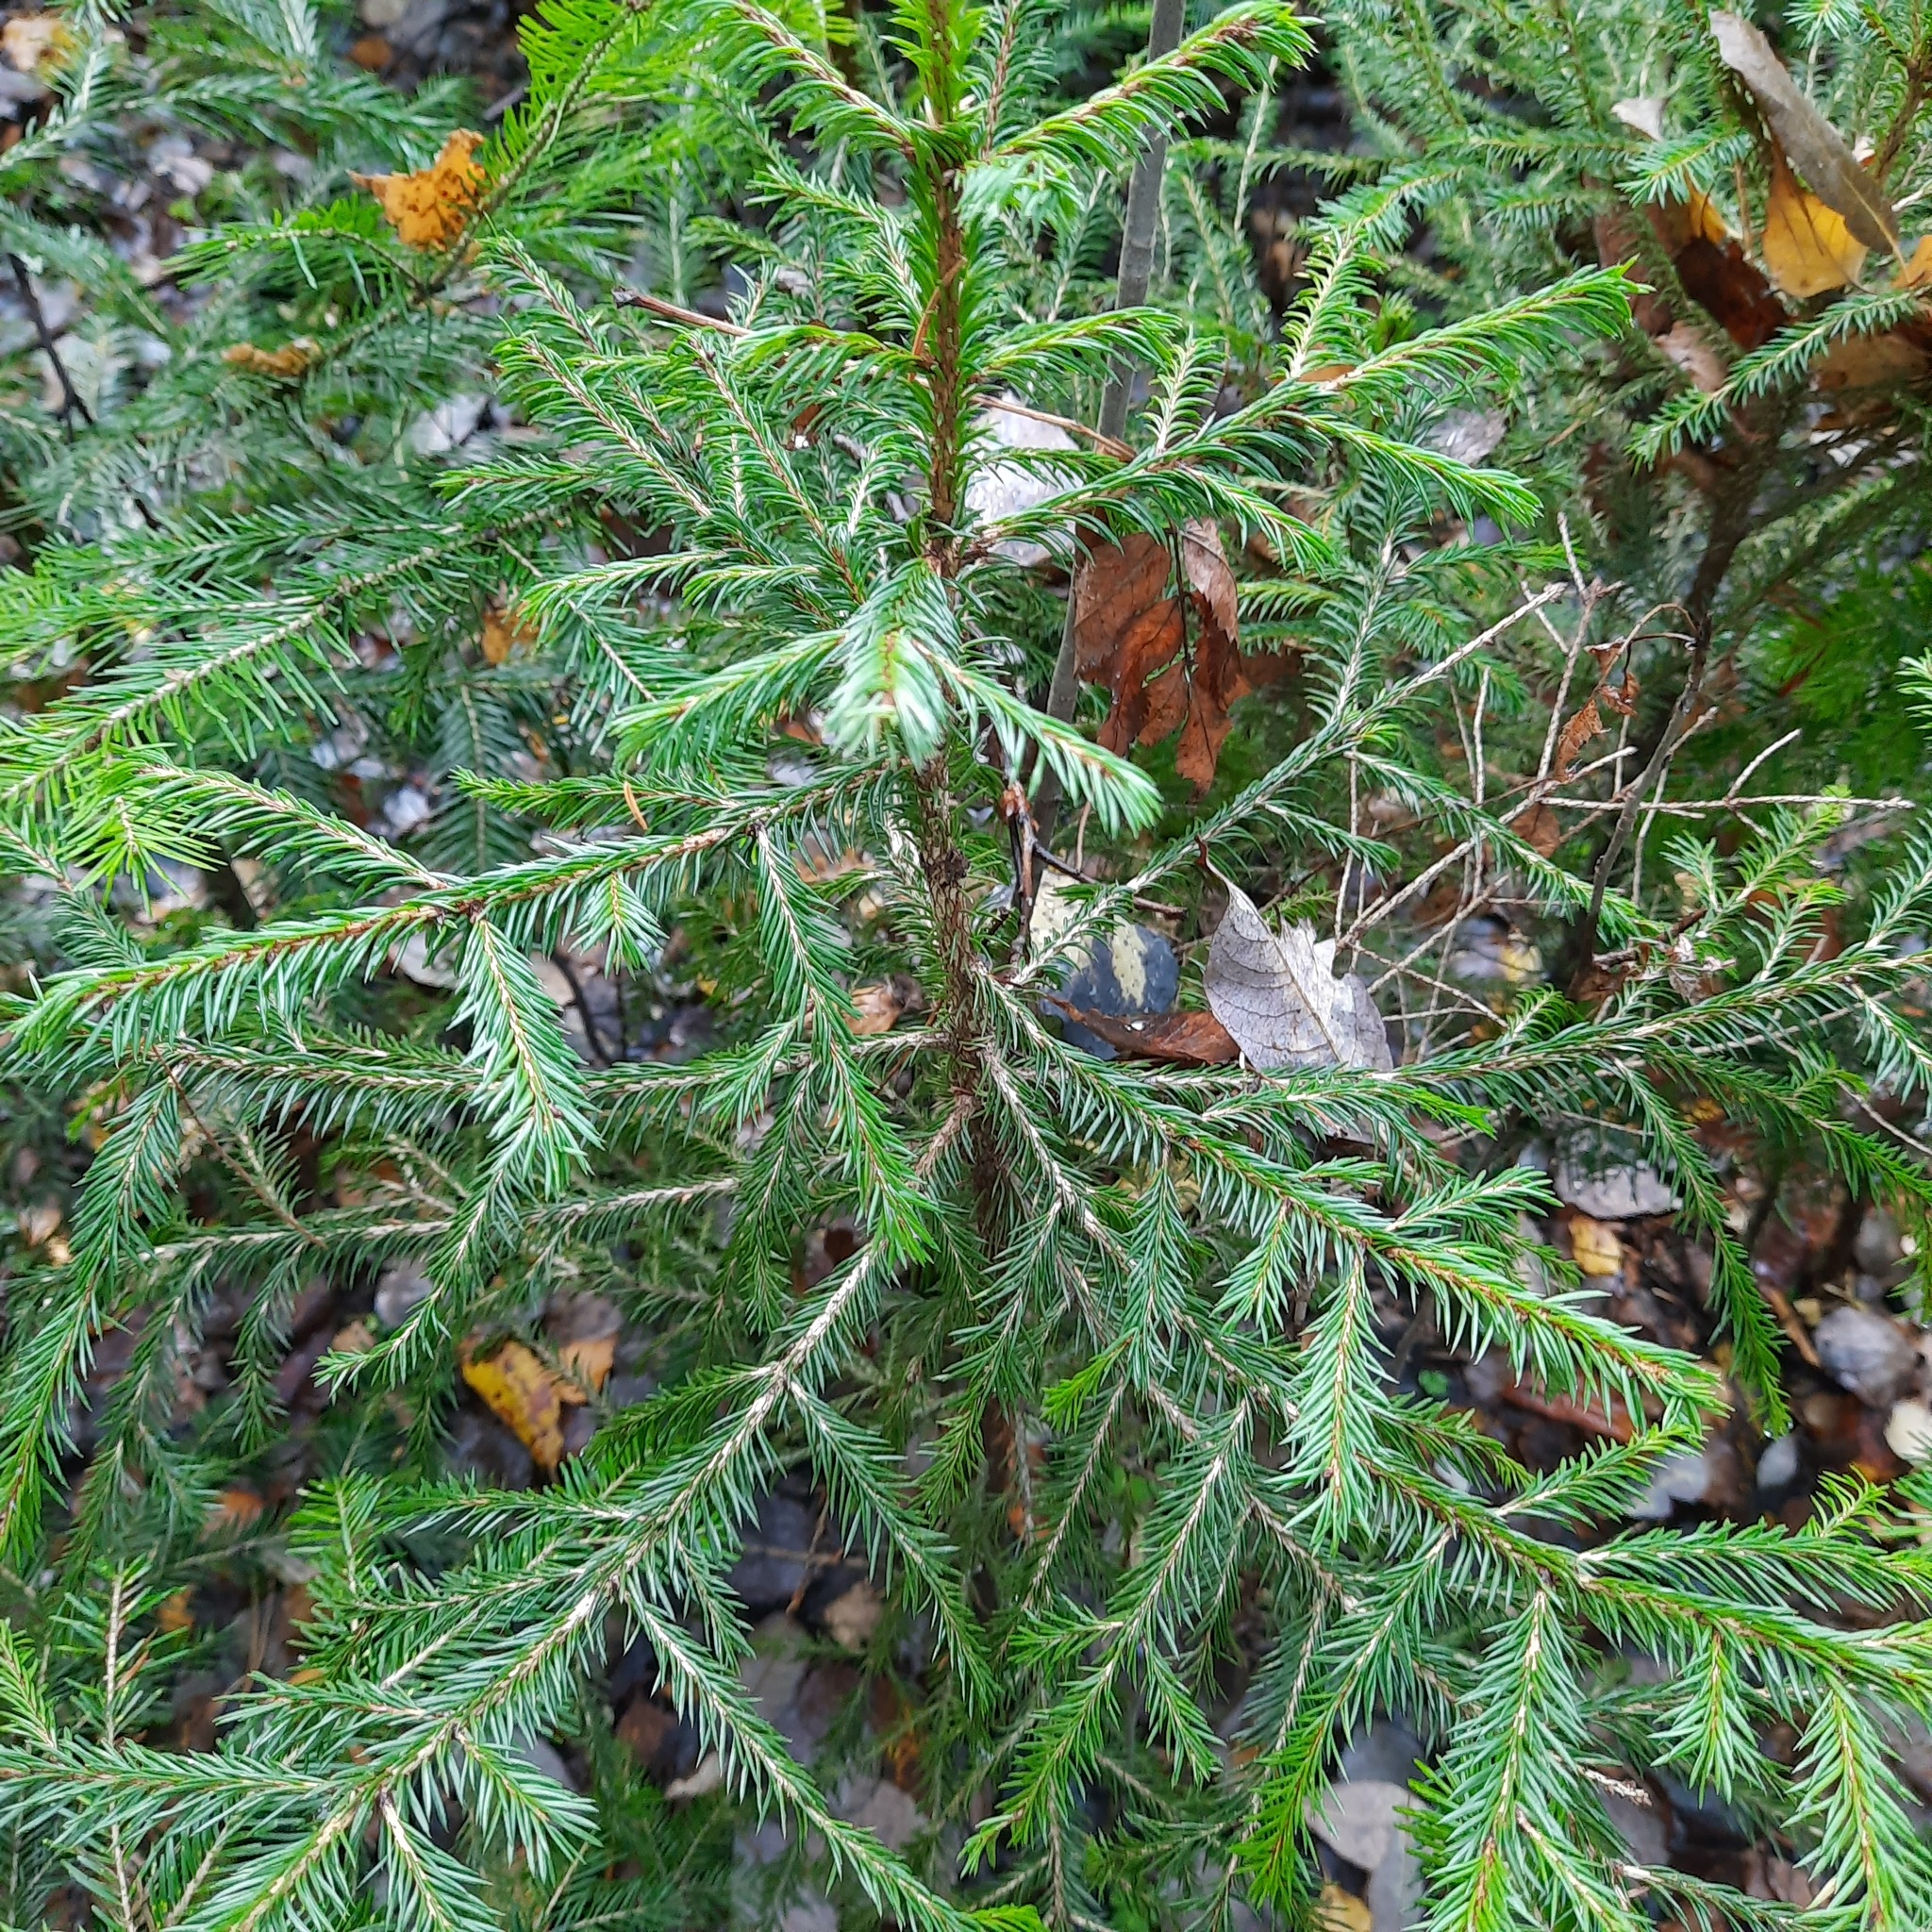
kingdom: Plantae
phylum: Tracheophyta
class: Pinopsida
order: Pinales
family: Pinaceae
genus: Picea
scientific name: Picea obovata
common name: Siberian spruce
